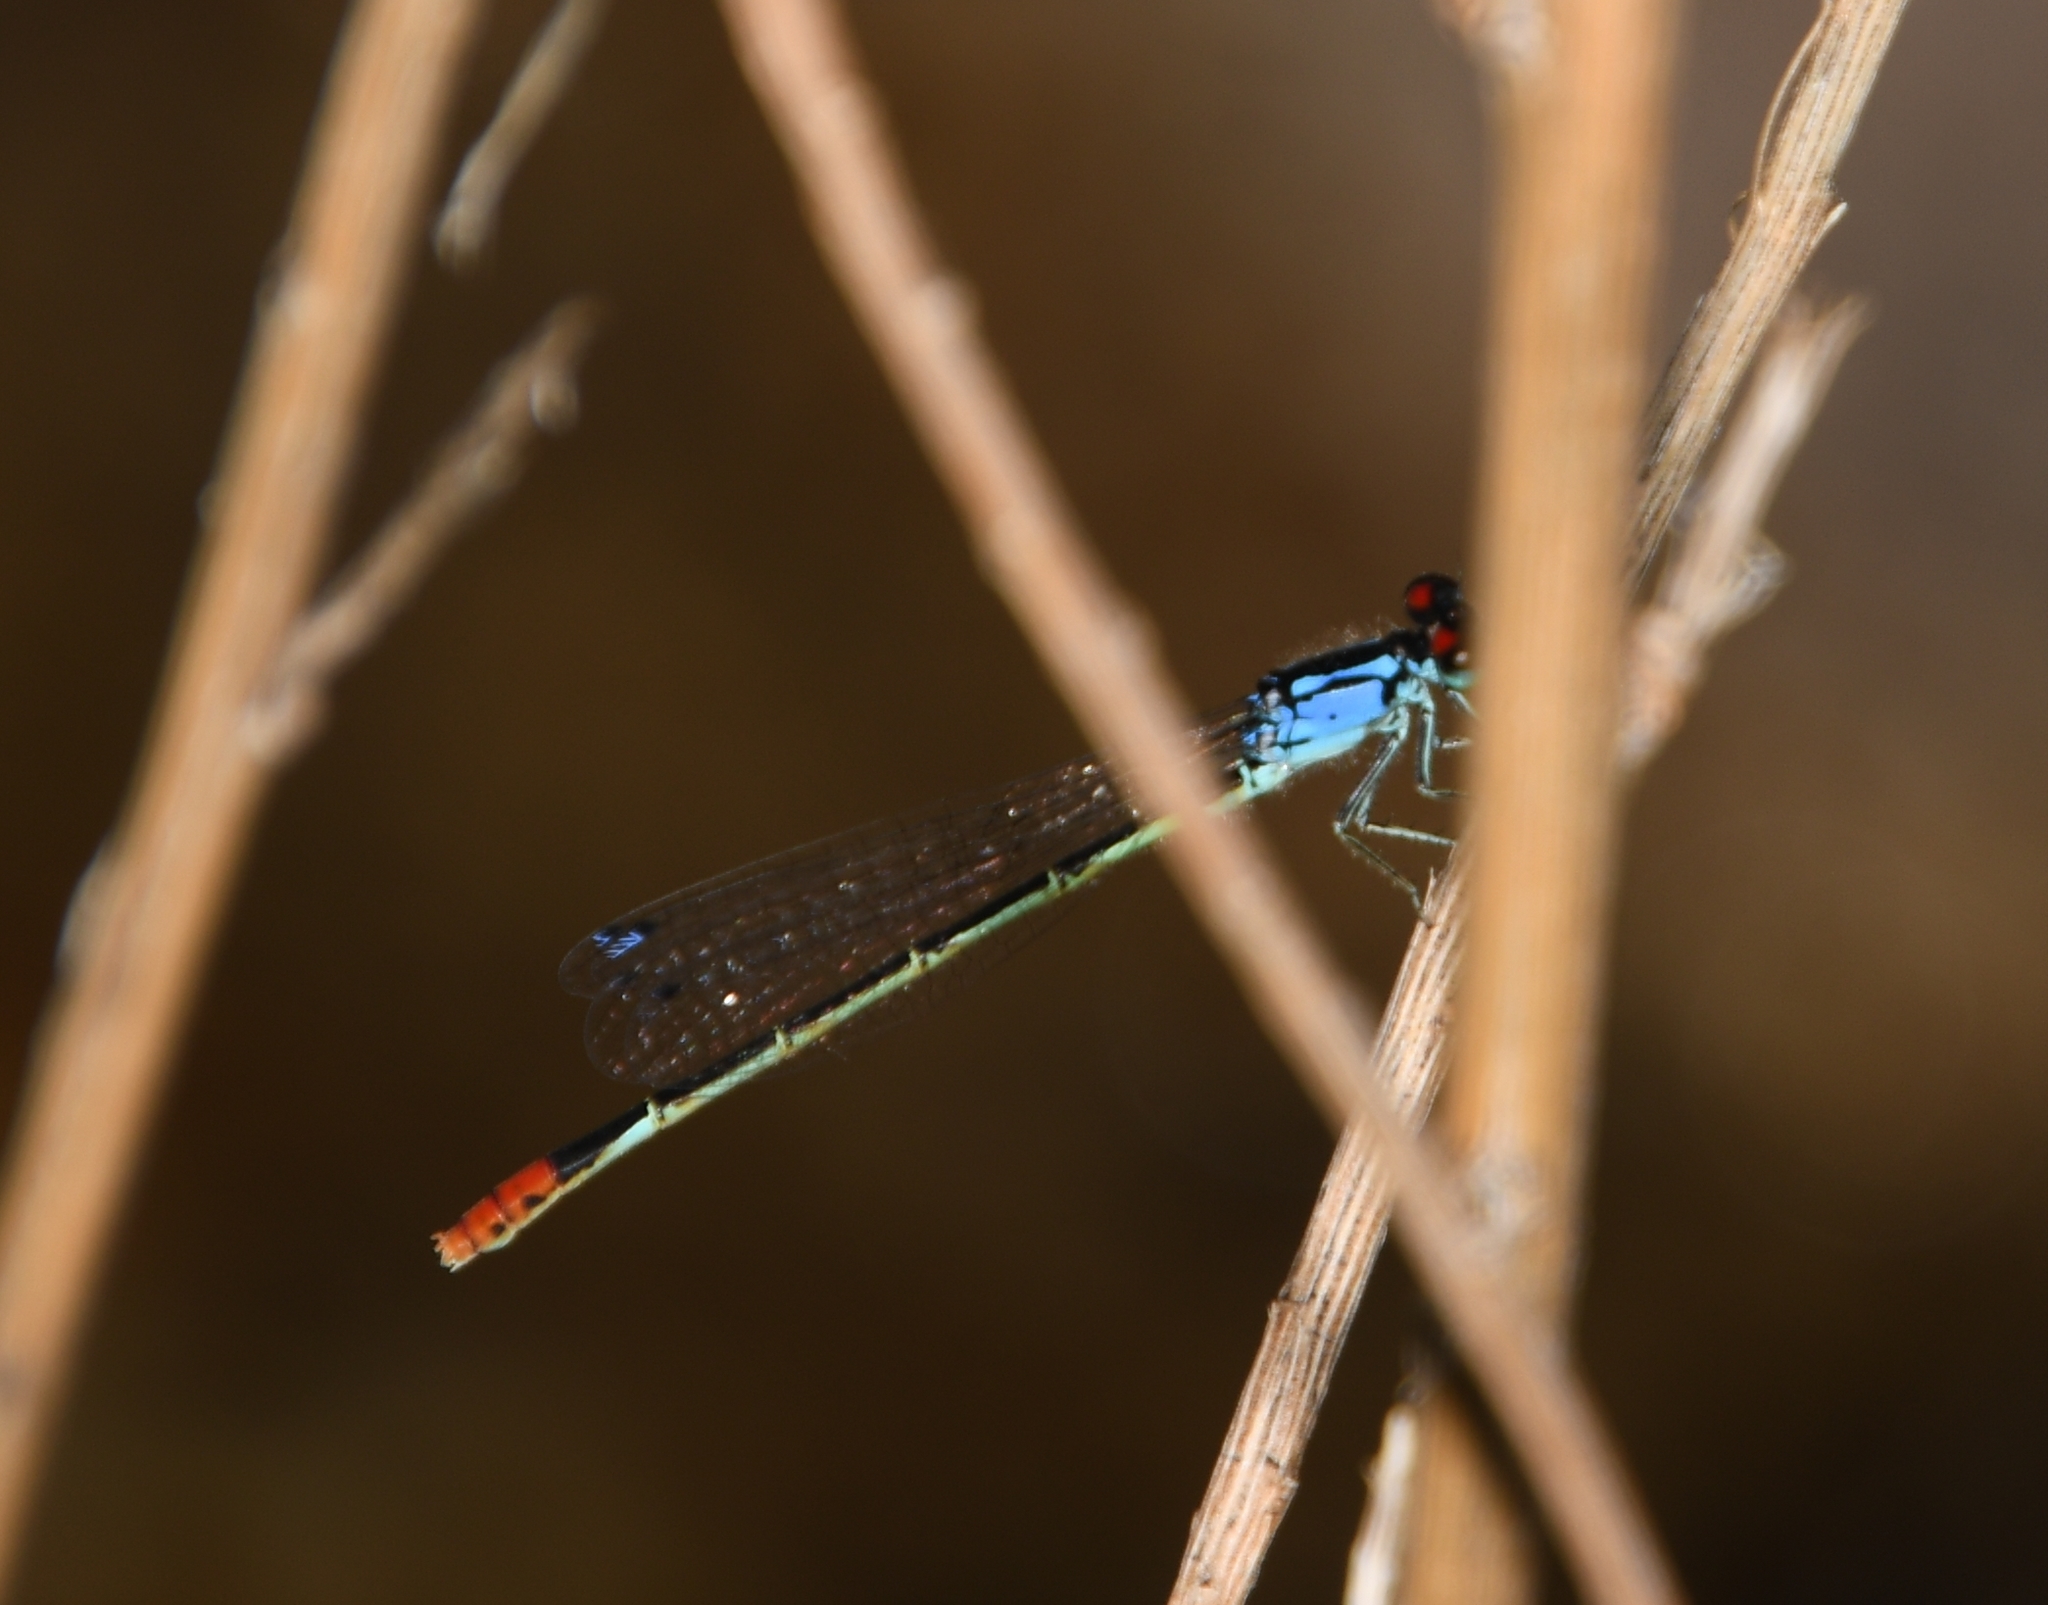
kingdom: Animalia
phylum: Arthropoda
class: Insecta
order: Odonata
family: Coenagrionidae
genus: Hesperagrion
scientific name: Hesperagrion heterodoxum
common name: Painted damsel
